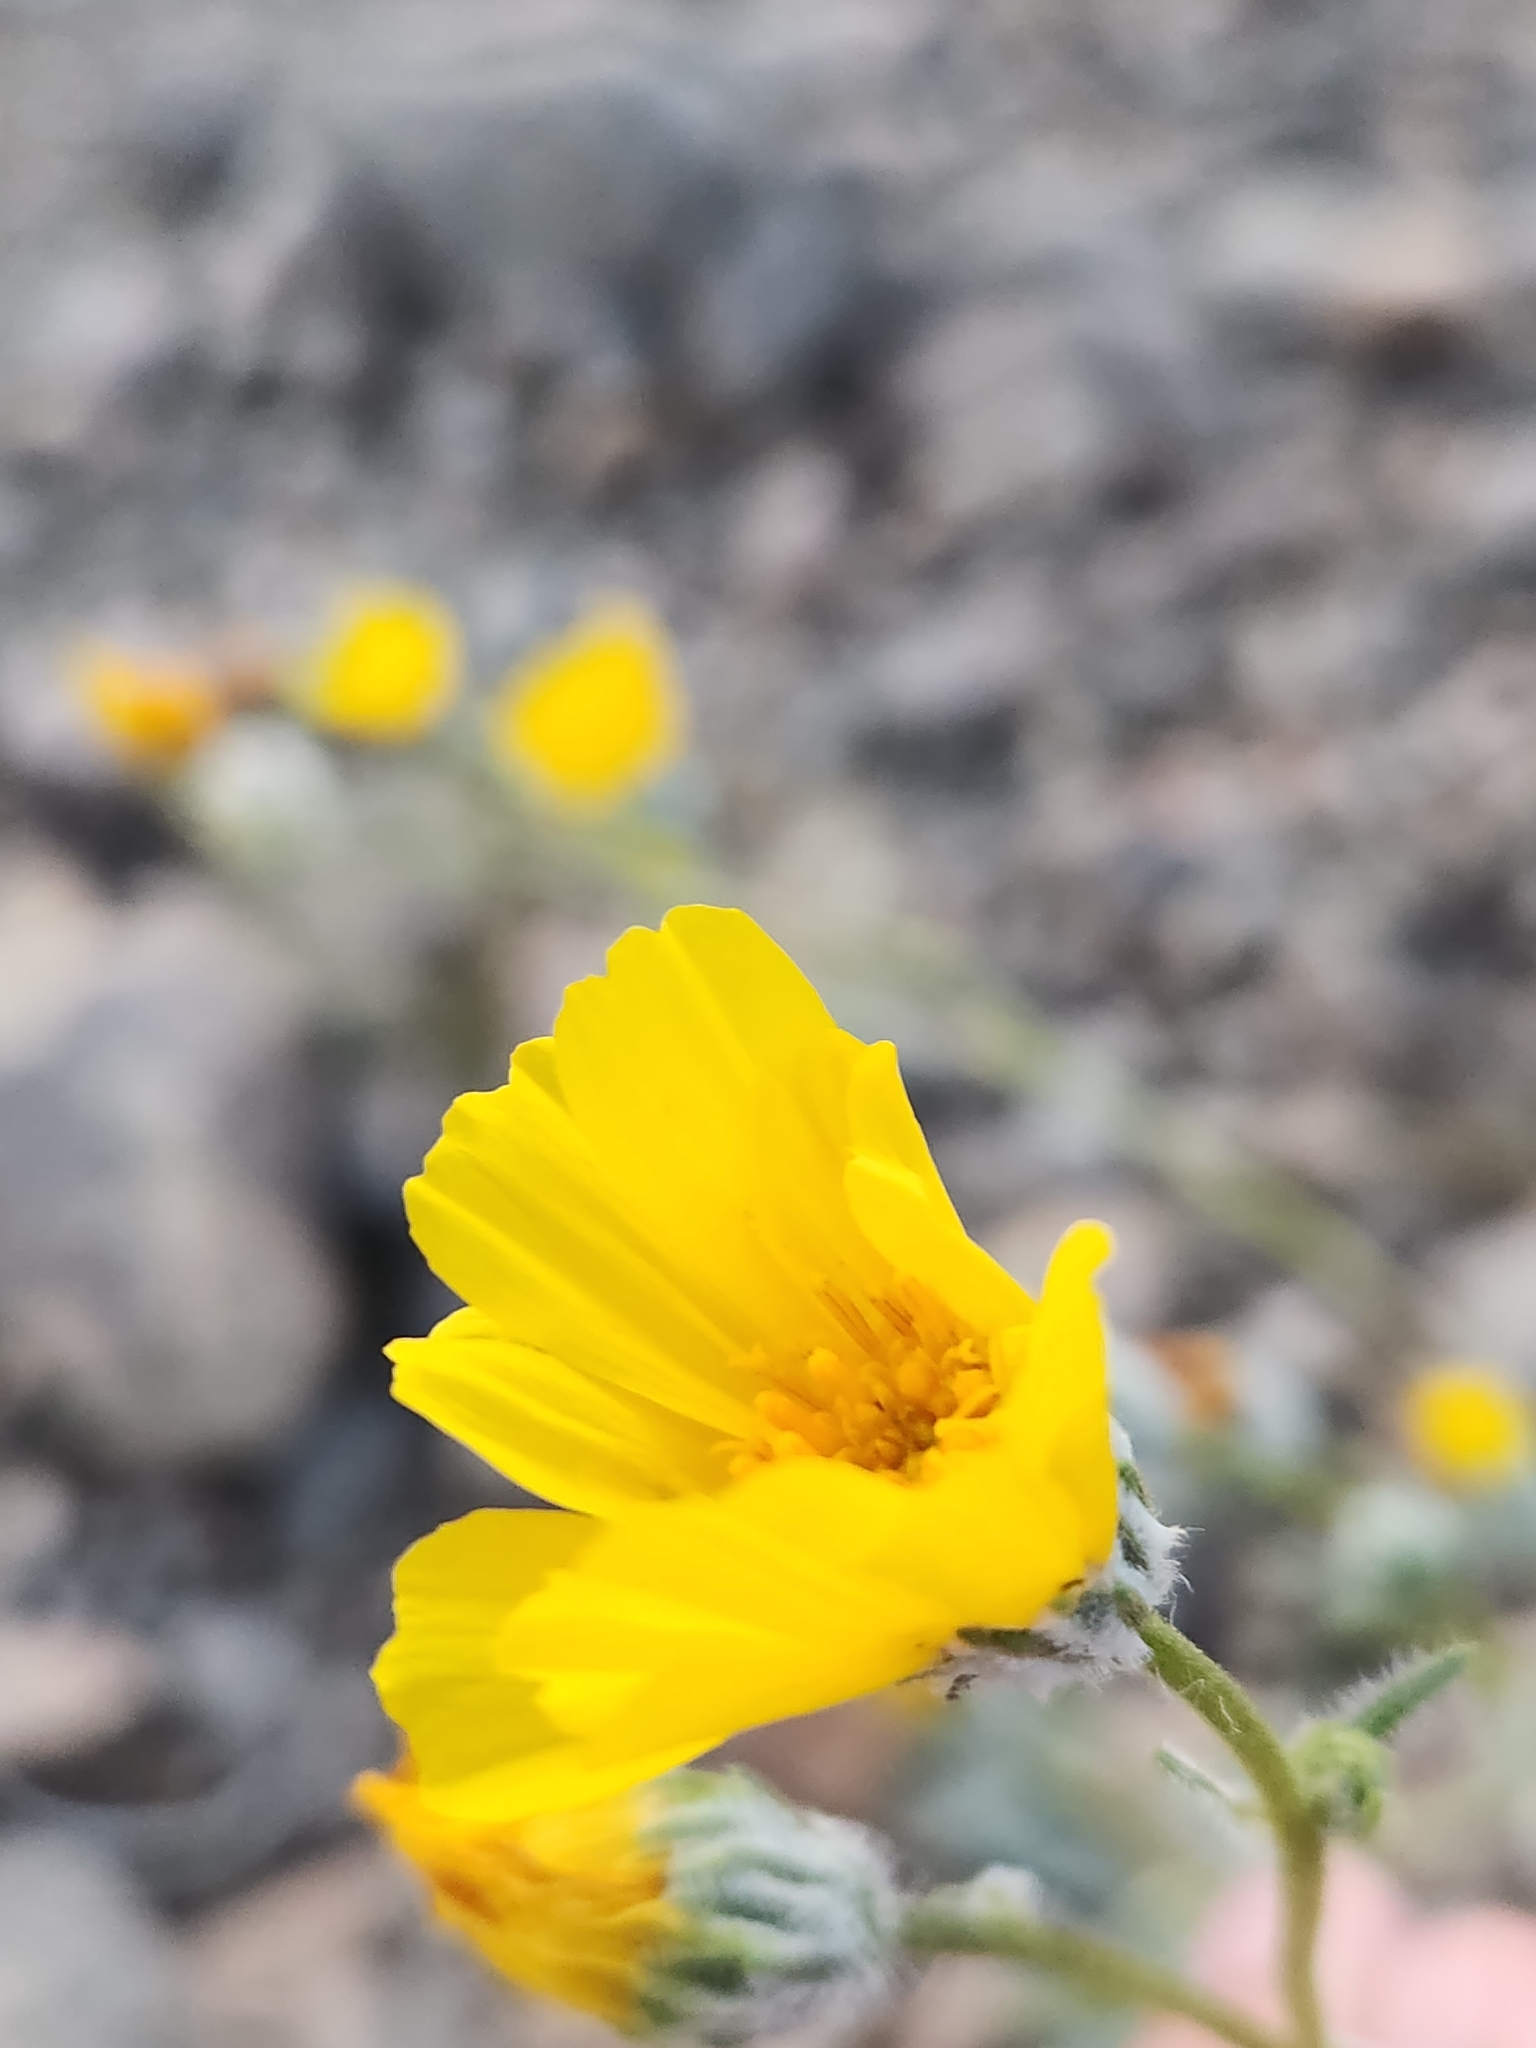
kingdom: Plantae
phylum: Tracheophyta
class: Magnoliopsida
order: Asterales
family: Asteraceae
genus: Geraea
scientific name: Geraea canescens
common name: Desert-gold
